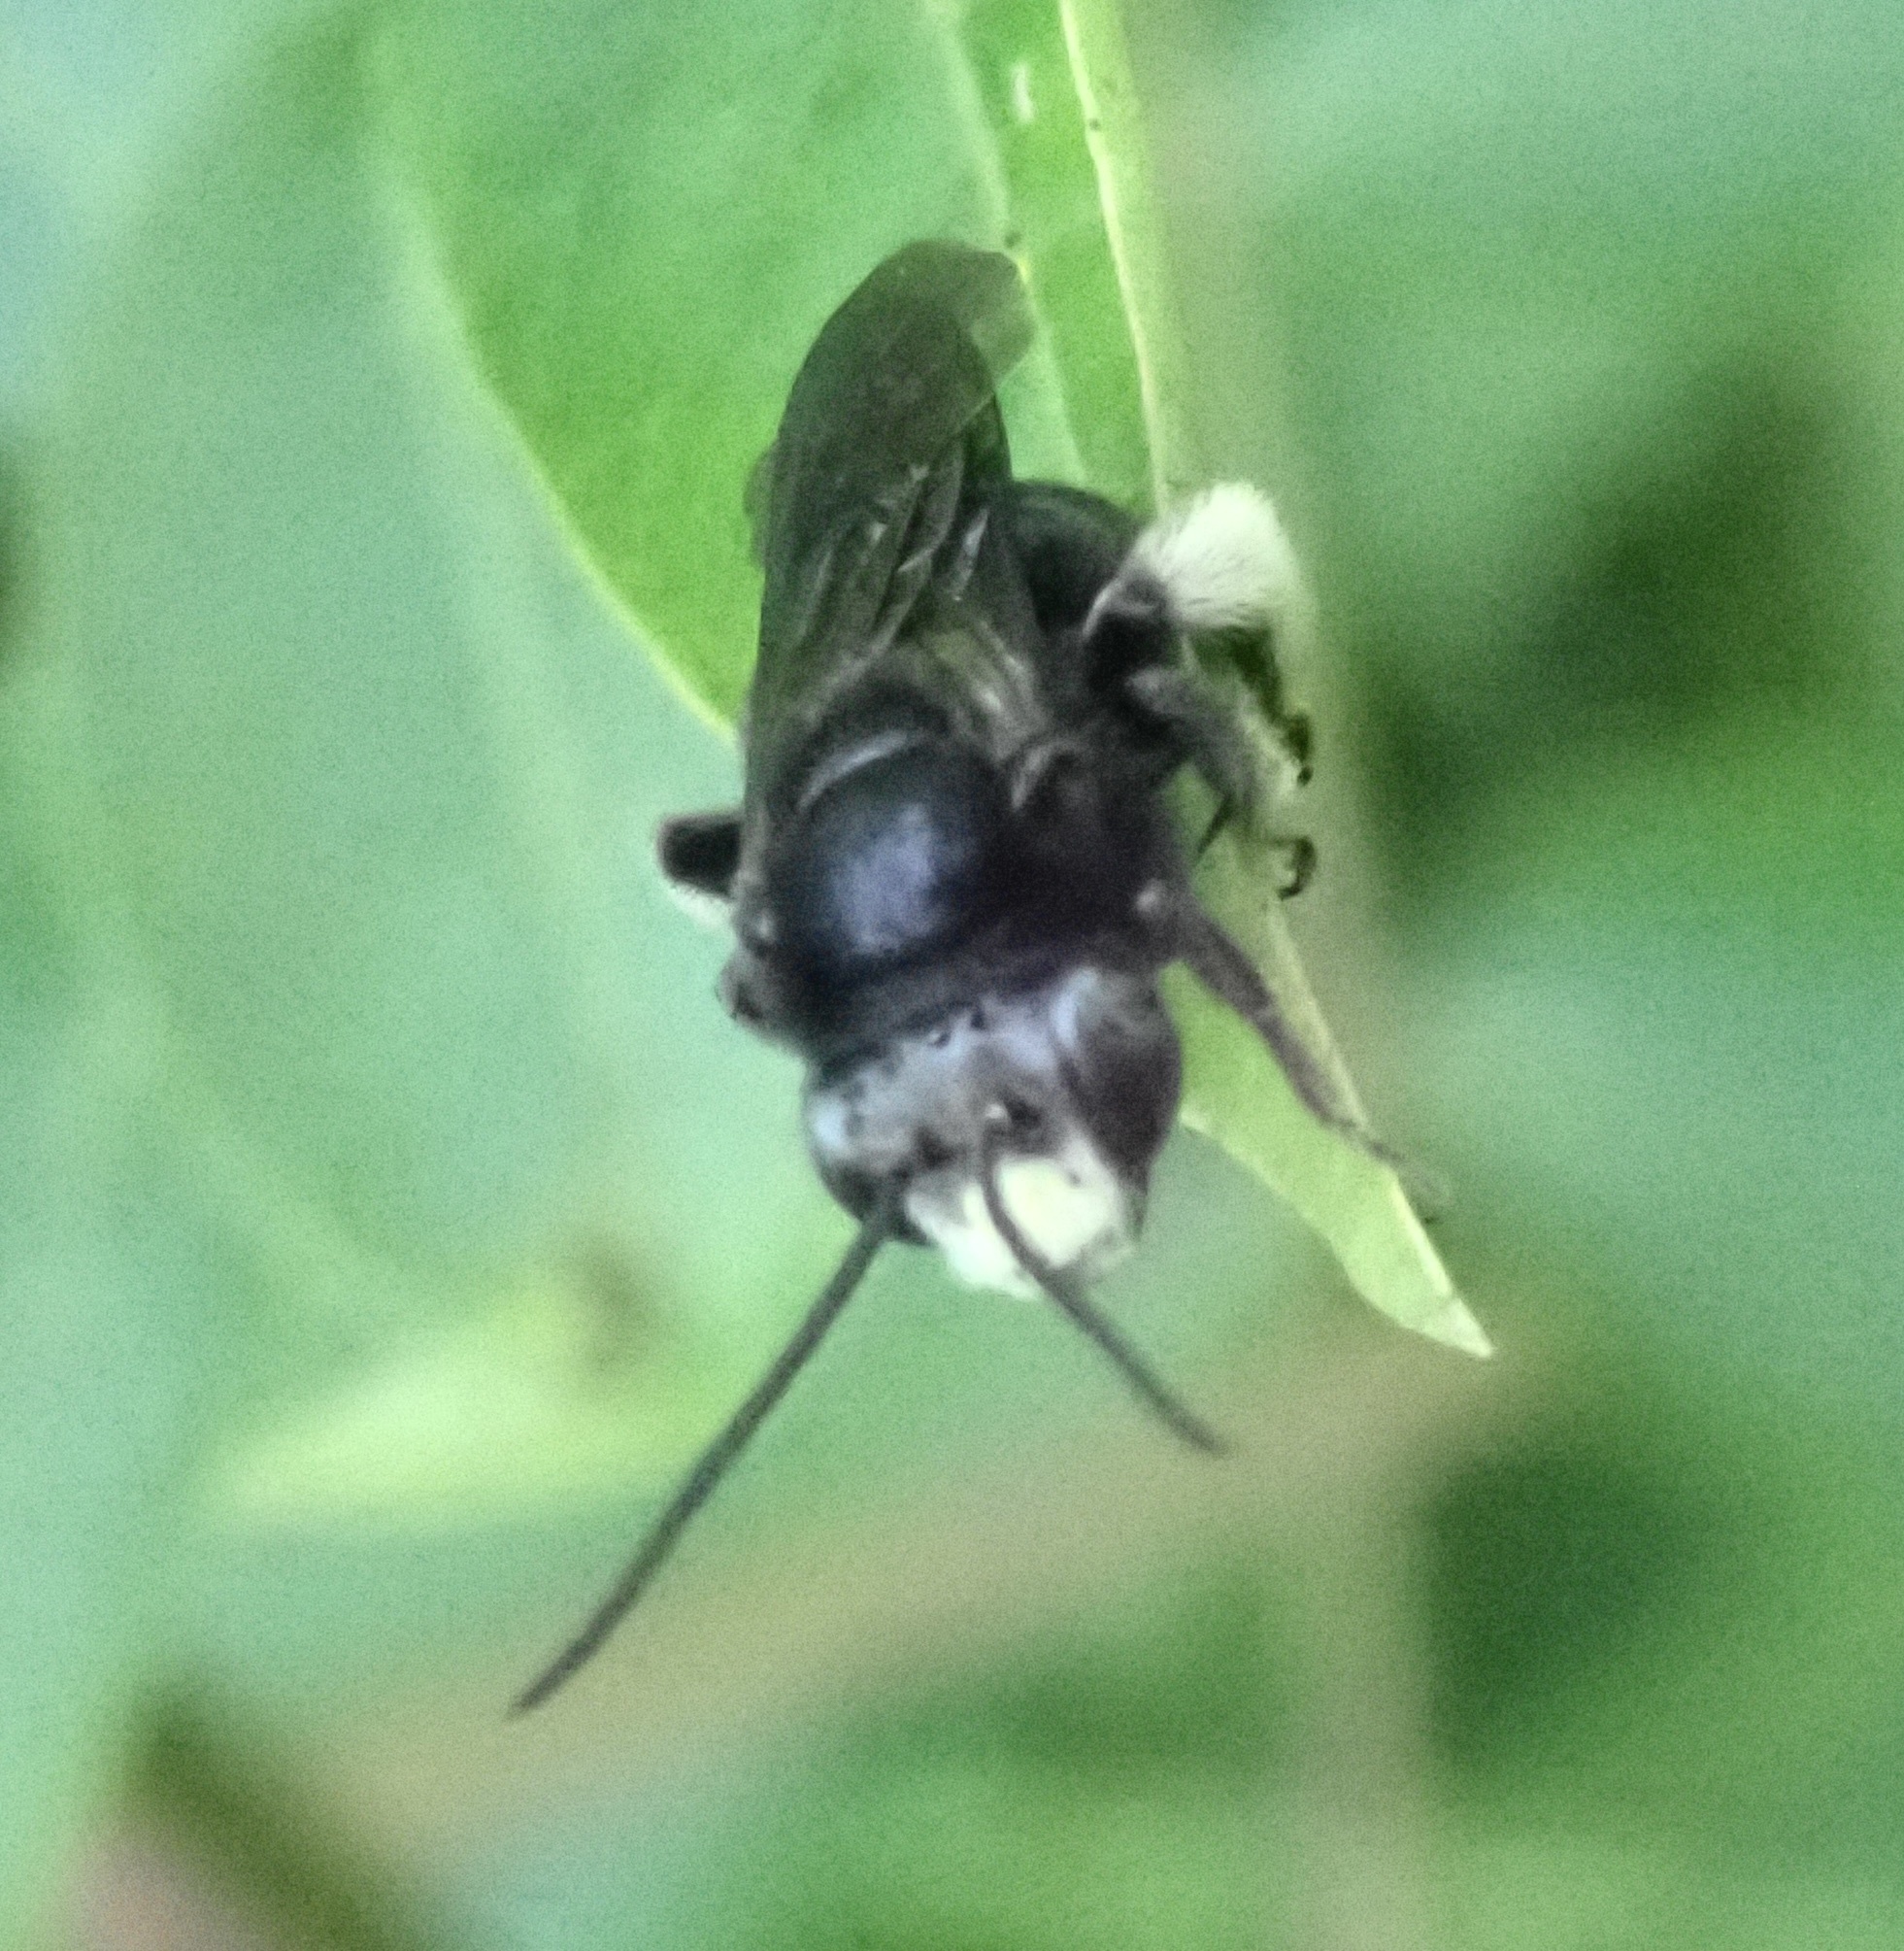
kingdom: Animalia
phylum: Arthropoda
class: Insecta
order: Hymenoptera
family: Apidae
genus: Melissodes
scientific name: Melissodes bimaculatus
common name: Two-spotted long-horned bee
